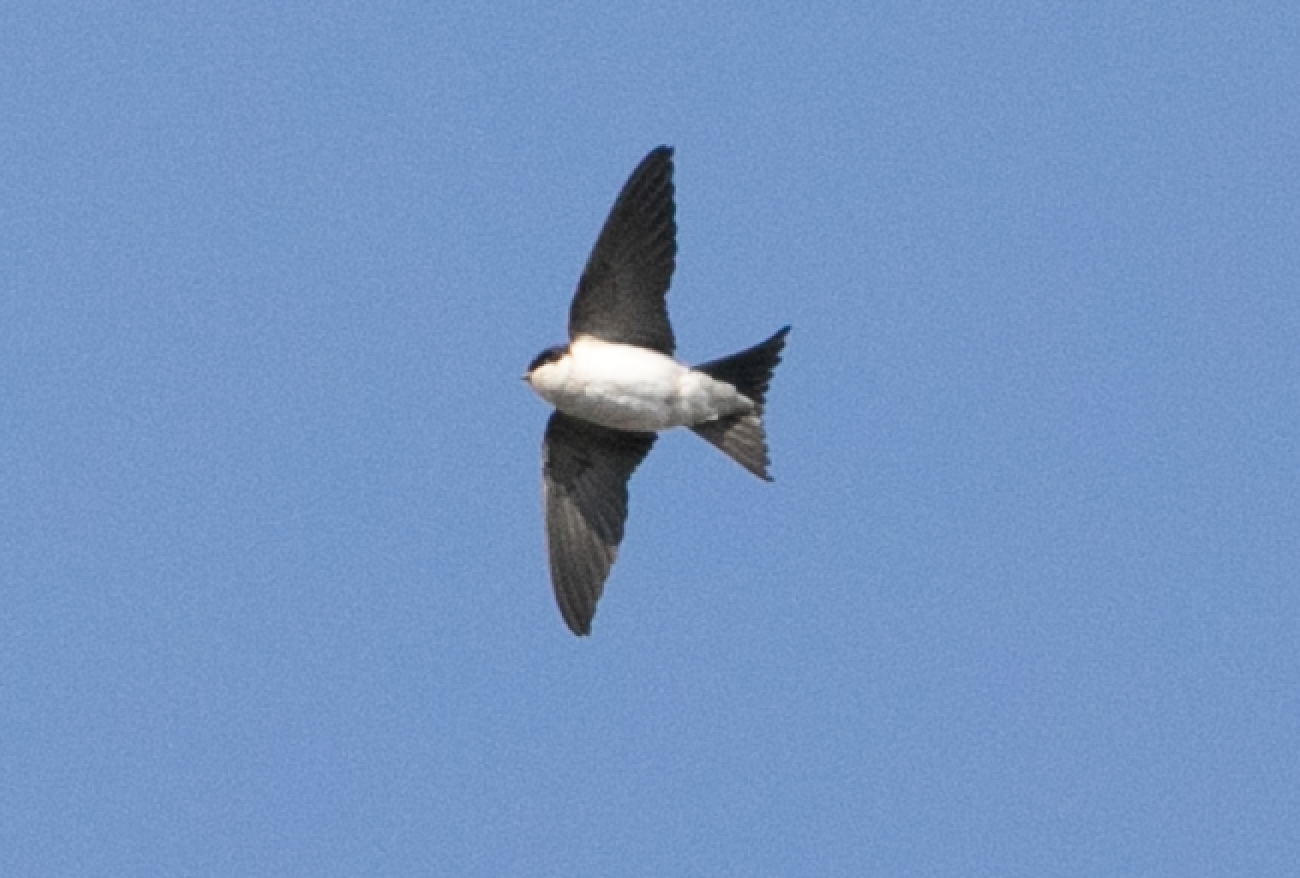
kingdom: Animalia
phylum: Chordata
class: Aves
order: Passeriformes
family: Hirundinidae
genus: Delichon
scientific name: Delichon urbicum
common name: Common house martin
